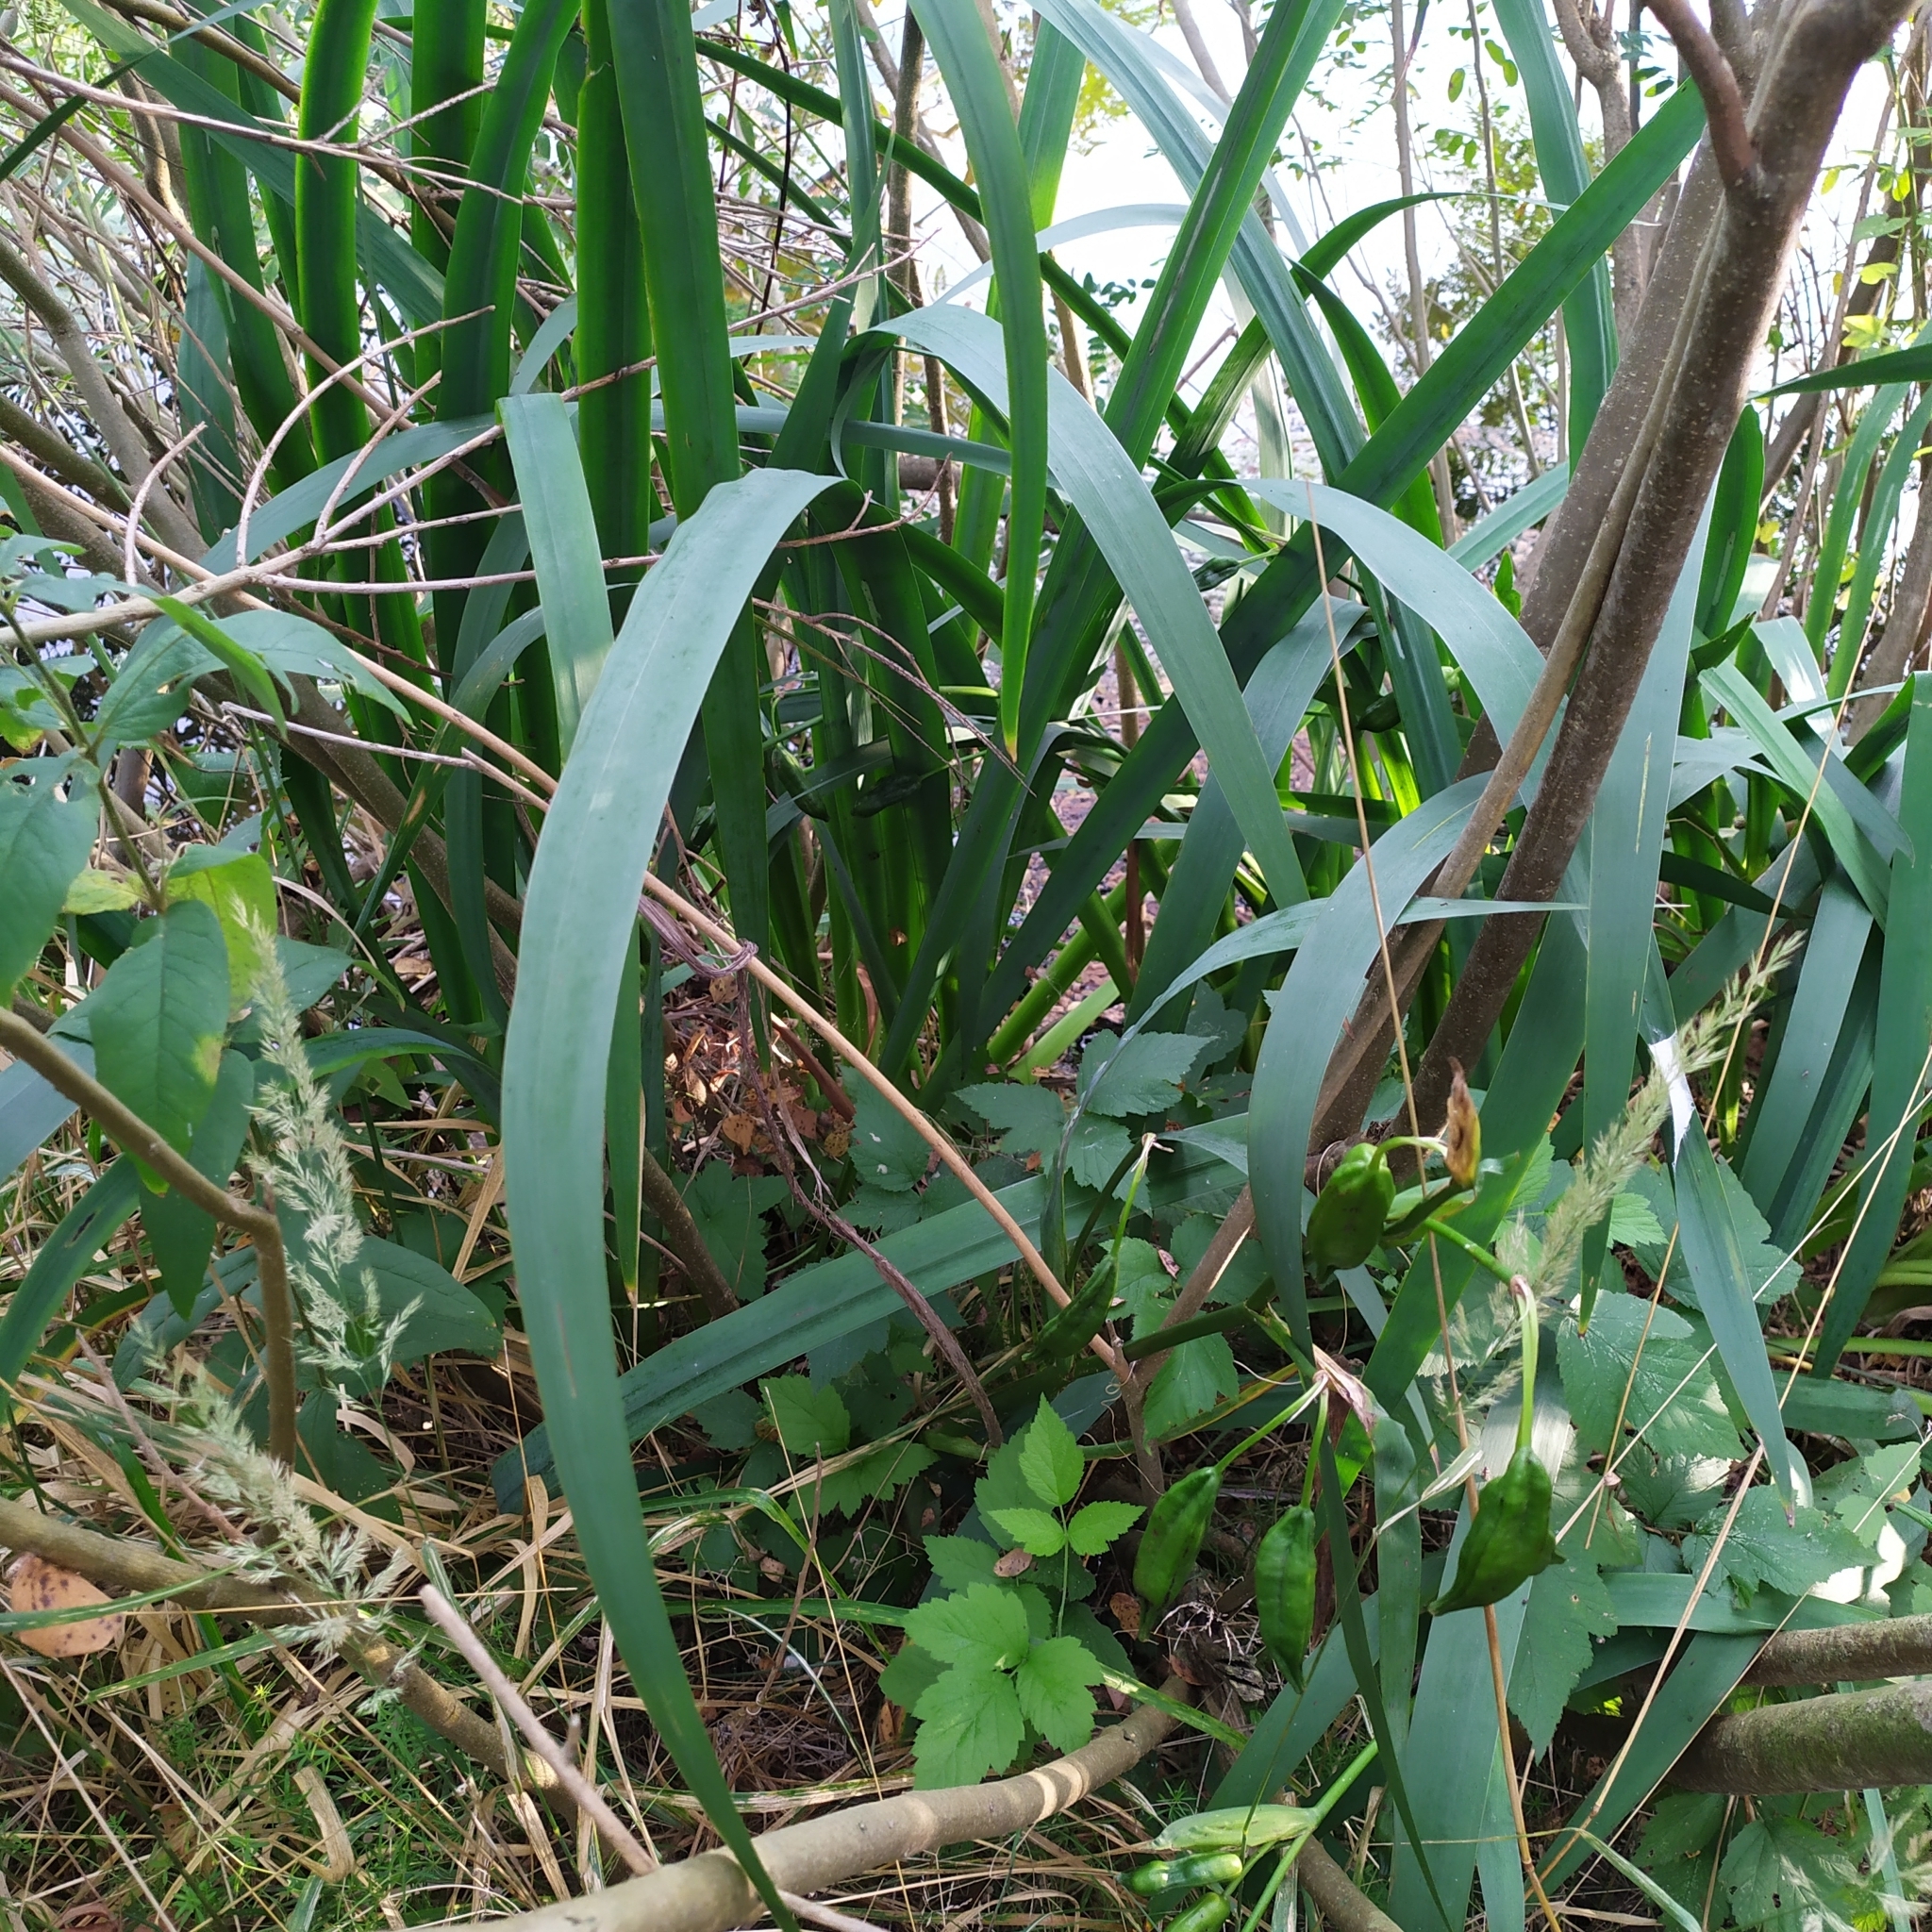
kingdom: Plantae
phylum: Tracheophyta
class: Liliopsida
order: Asparagales
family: Iridaceae
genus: Iris
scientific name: Iris pseudacorus
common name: Yellow flag
